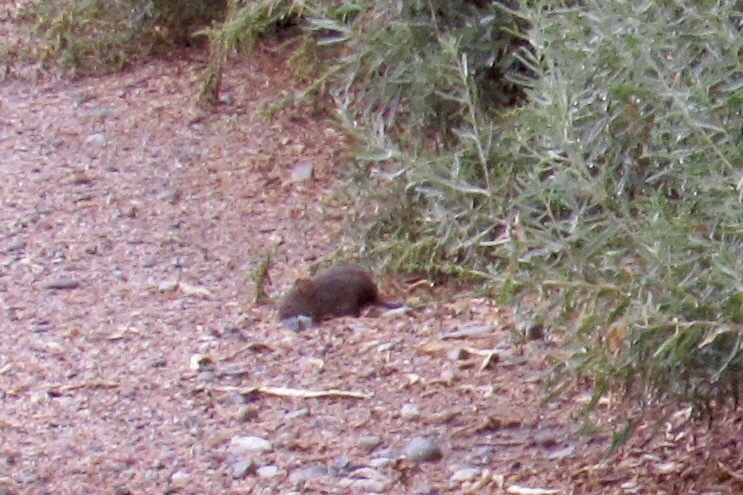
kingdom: Animalia
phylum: Chordata
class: Mammalia
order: Rodentia
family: Cricetidae
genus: Sigmodon
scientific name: Sigmodon arizonae
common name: Arizona cotton rat
